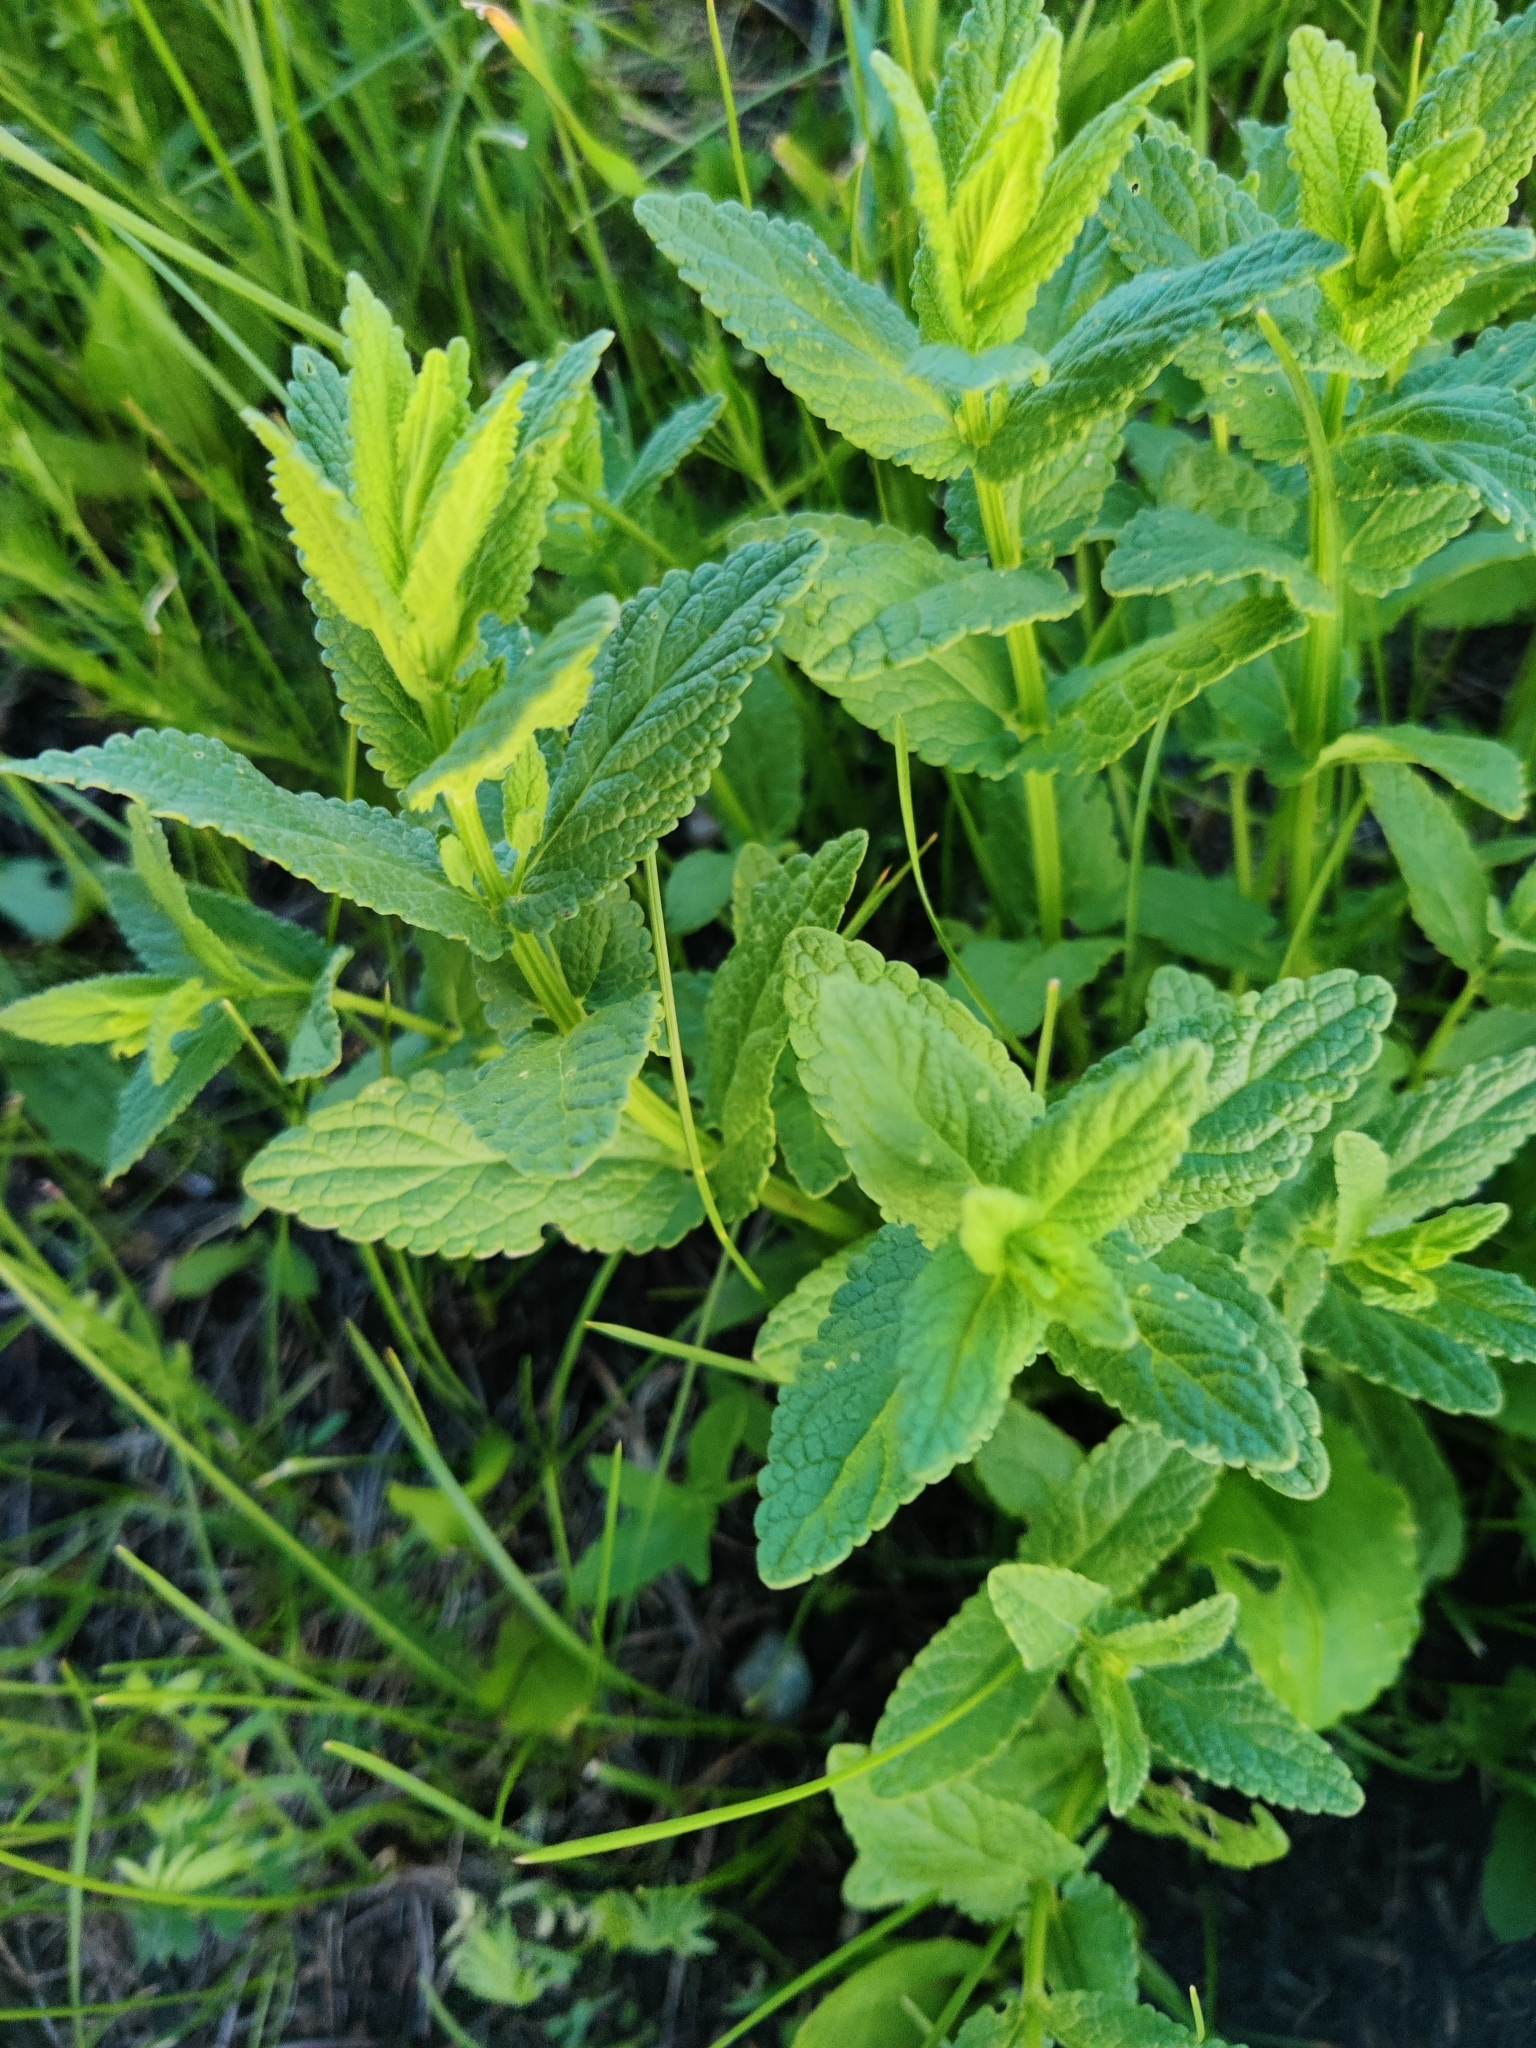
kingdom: Plantae
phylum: Tracheophyta
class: Magnoliopsida
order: Lamiales
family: Lamiaceae
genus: Nepeta
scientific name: Nepeta nuda
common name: Hairless catmint
